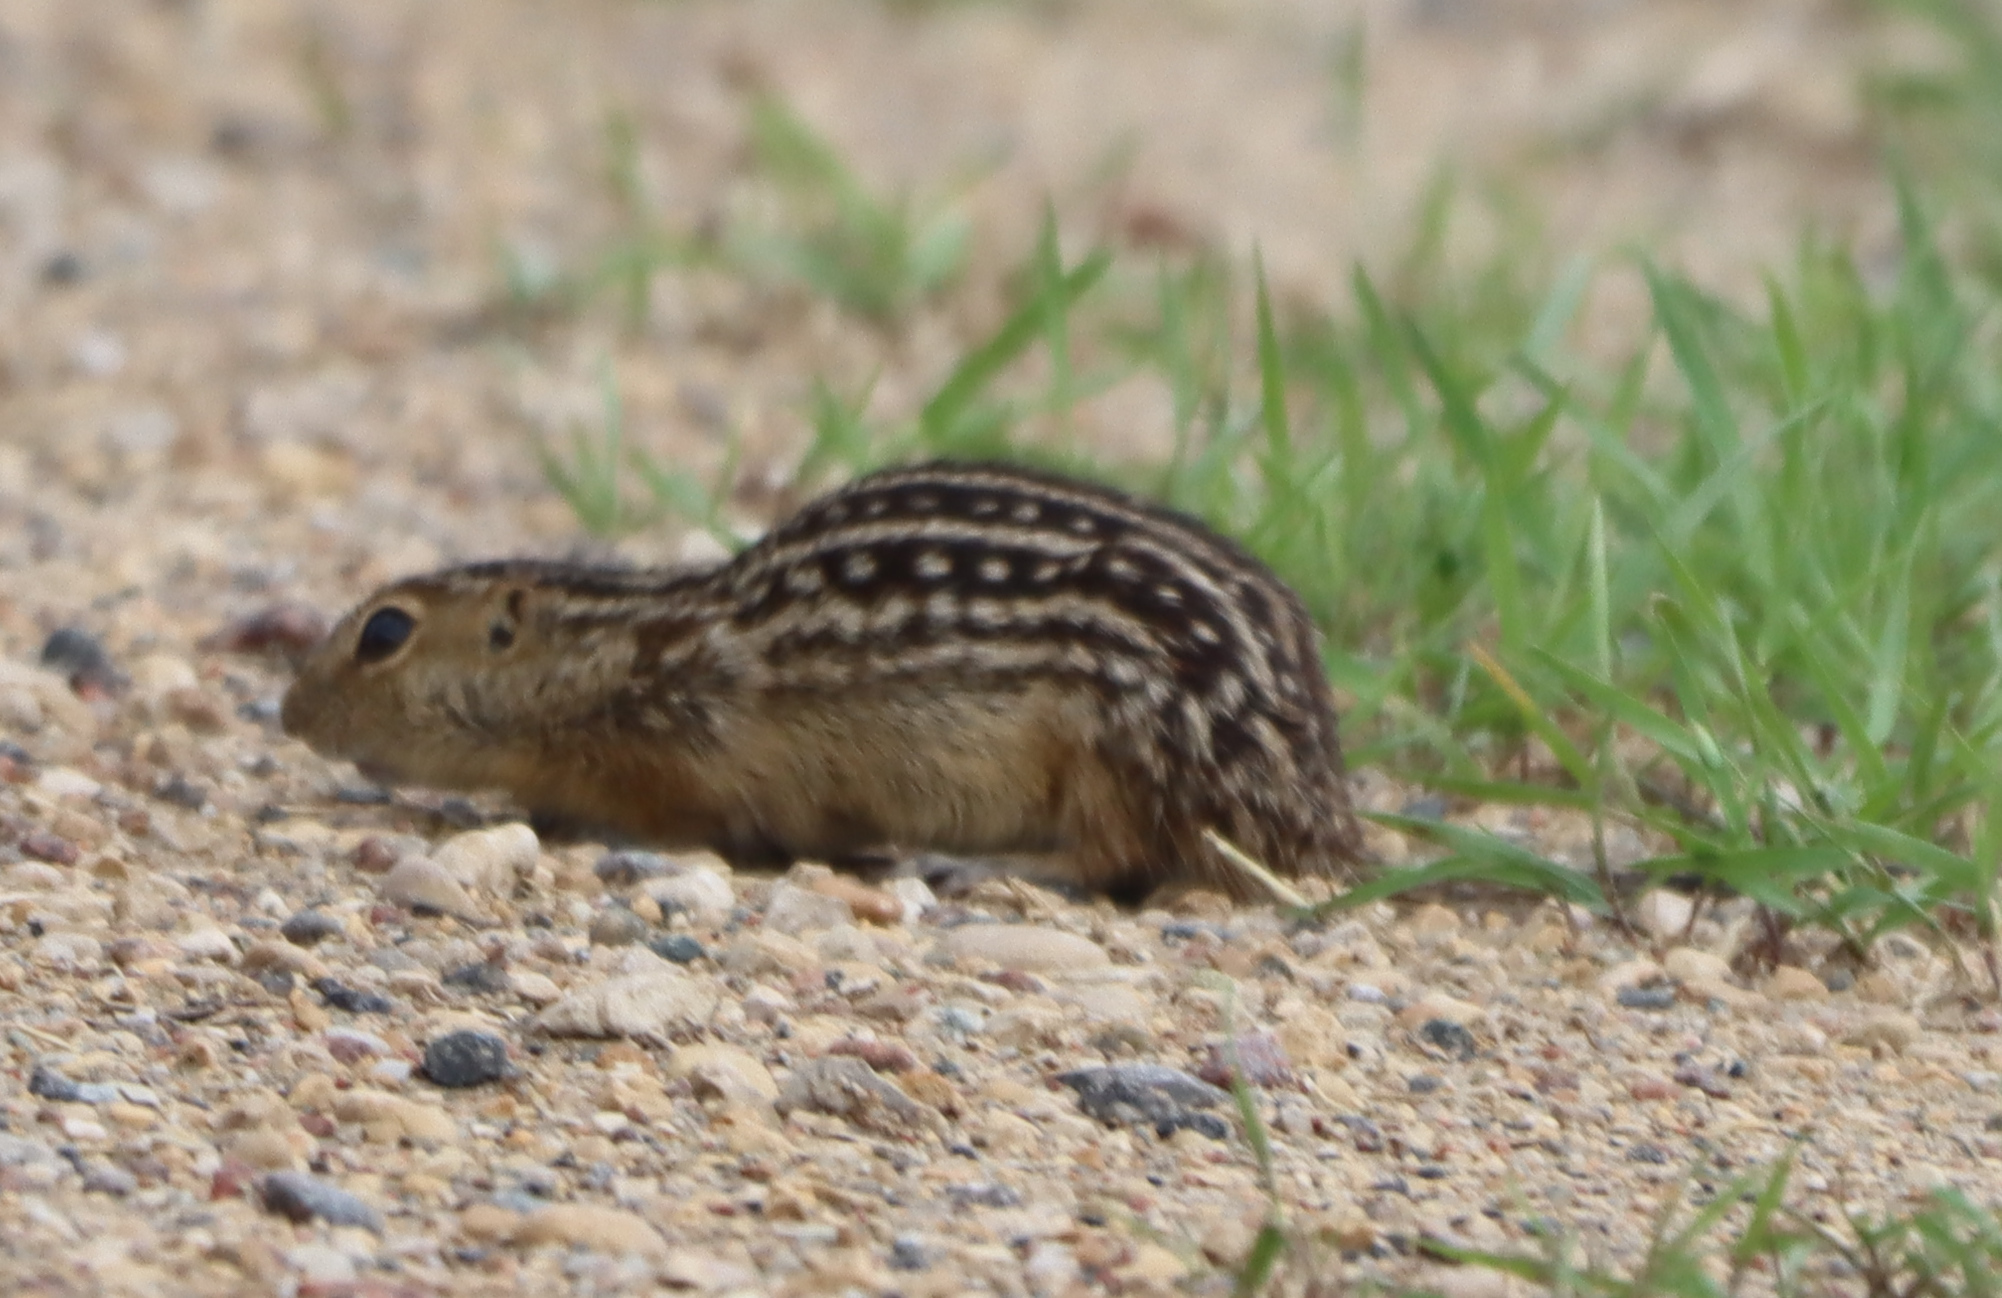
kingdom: Animalia
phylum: Chordata
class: Mammalia
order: Rodentia
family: Sciuridae
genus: Ictidomys
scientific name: Ictidomys tridecemlineatus
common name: Thirteen-lined ground squirrel
